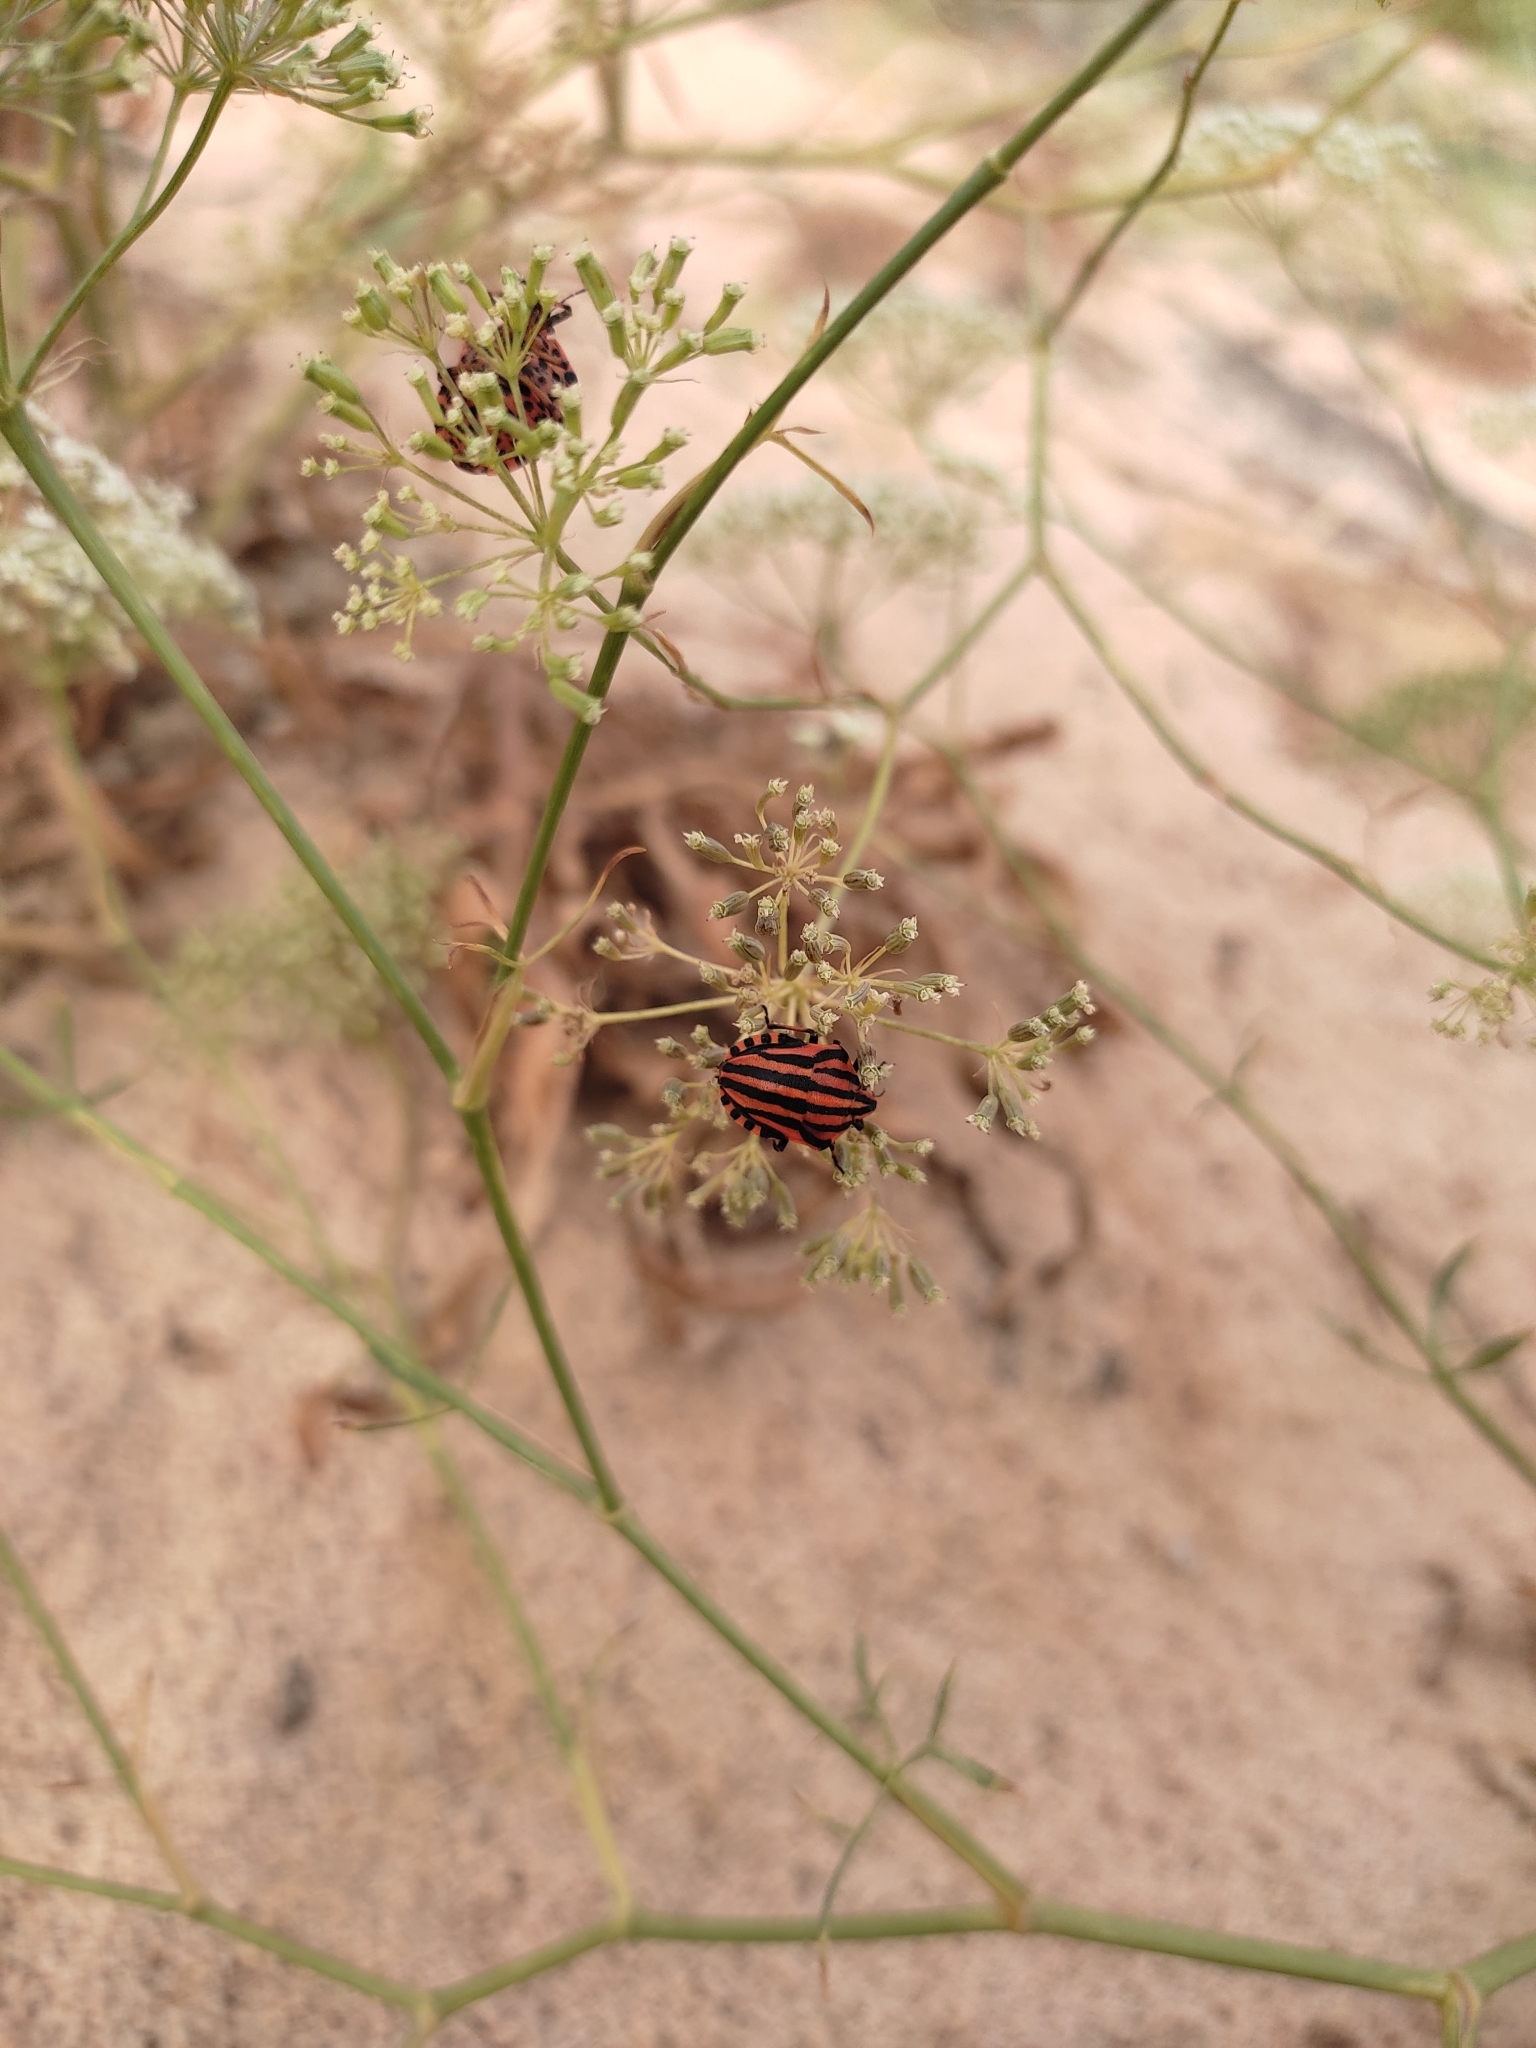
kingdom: Animalia
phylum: Arthropoda
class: Insecta
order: Hemiptera
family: Pentatomidae
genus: Graphosoma
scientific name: Graphosoma italicum
